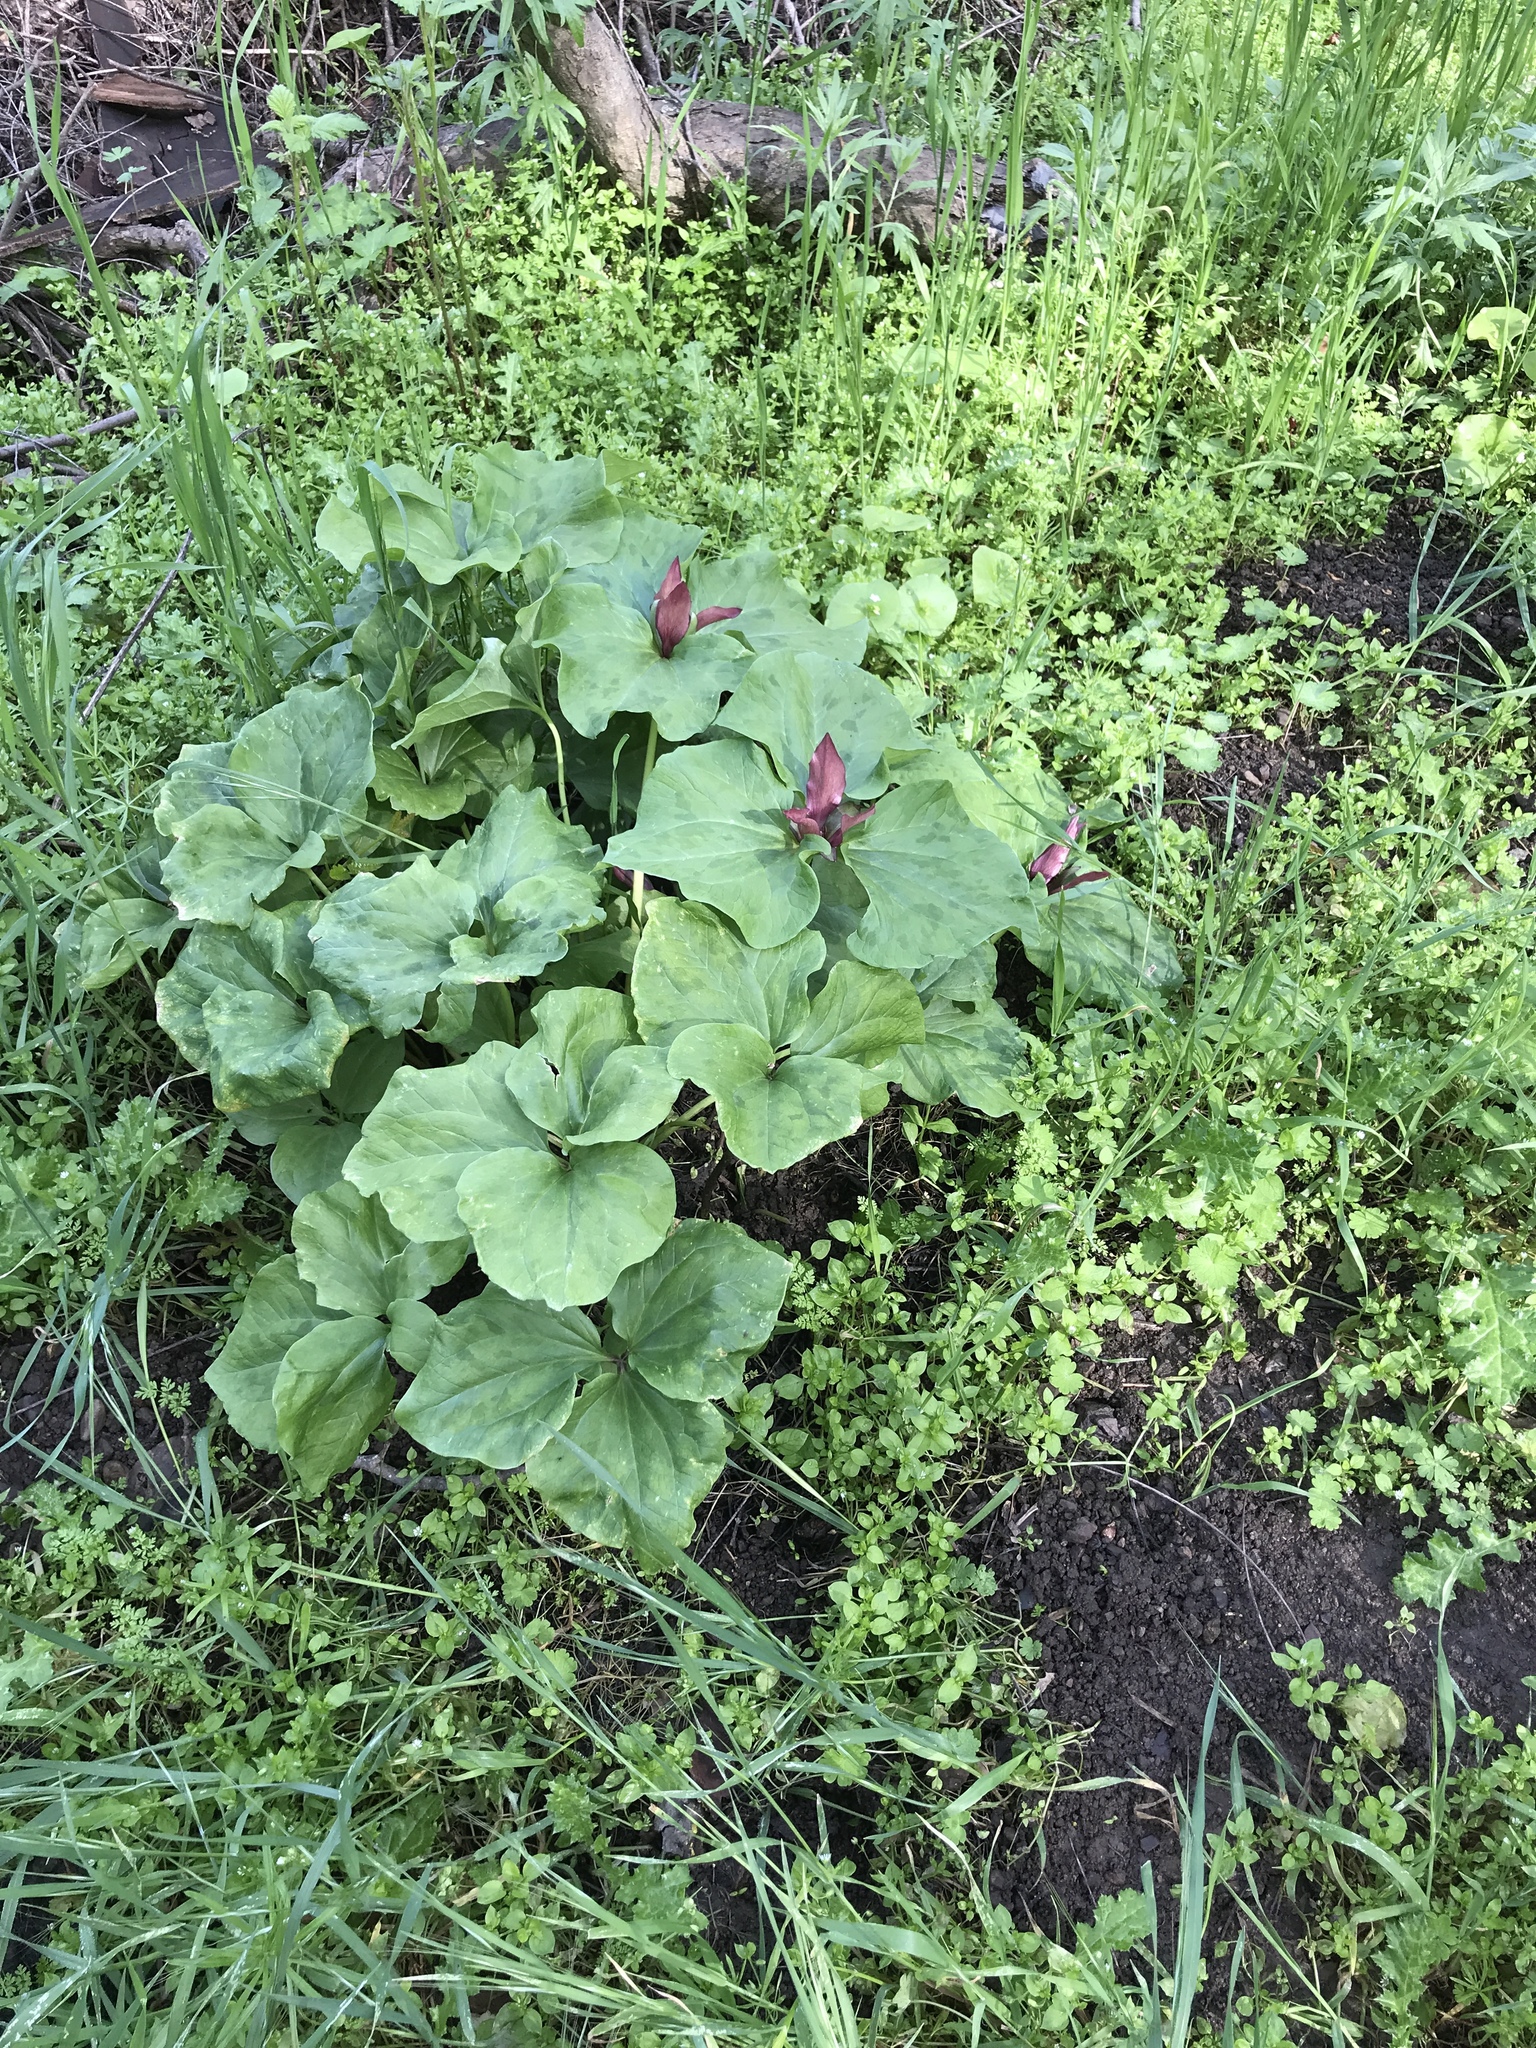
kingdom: Plantae
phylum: Tracheophyta
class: Liliopsida
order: Liliales
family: Melanthiaceae
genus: Trillium
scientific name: Trillium chloropetalum
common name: Giant trillium
